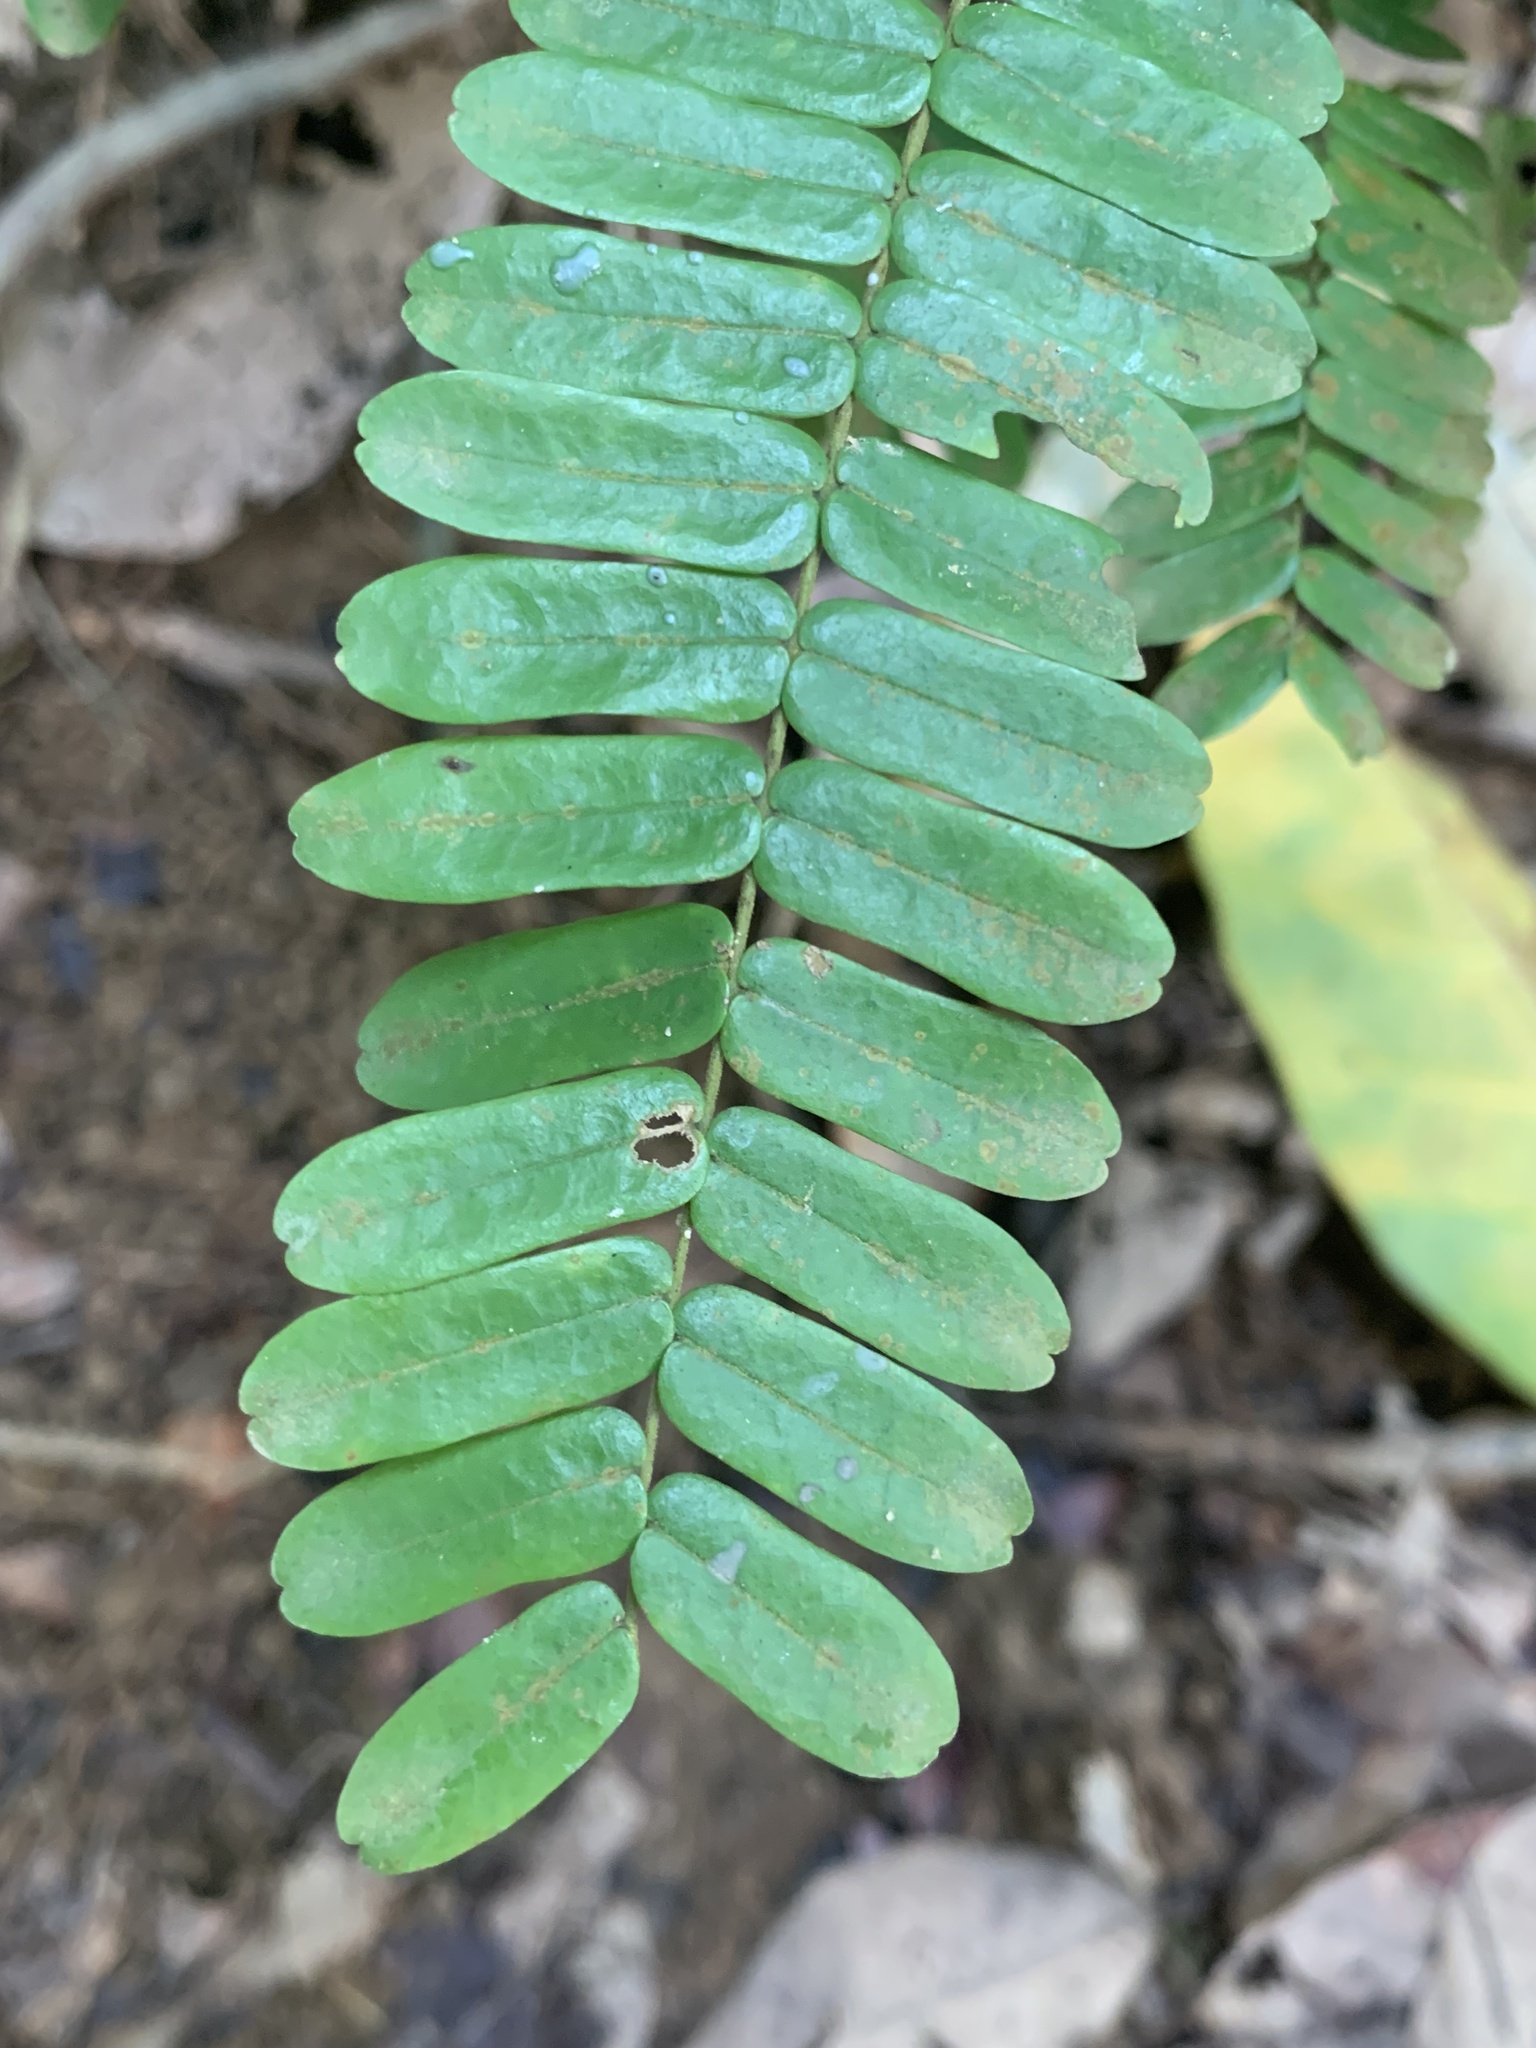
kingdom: Plantae
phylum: Tracheophyta
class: Magnoliopsida
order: Oxalidales
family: Connaraceae
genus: Rourea
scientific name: Rourea mimosoides
